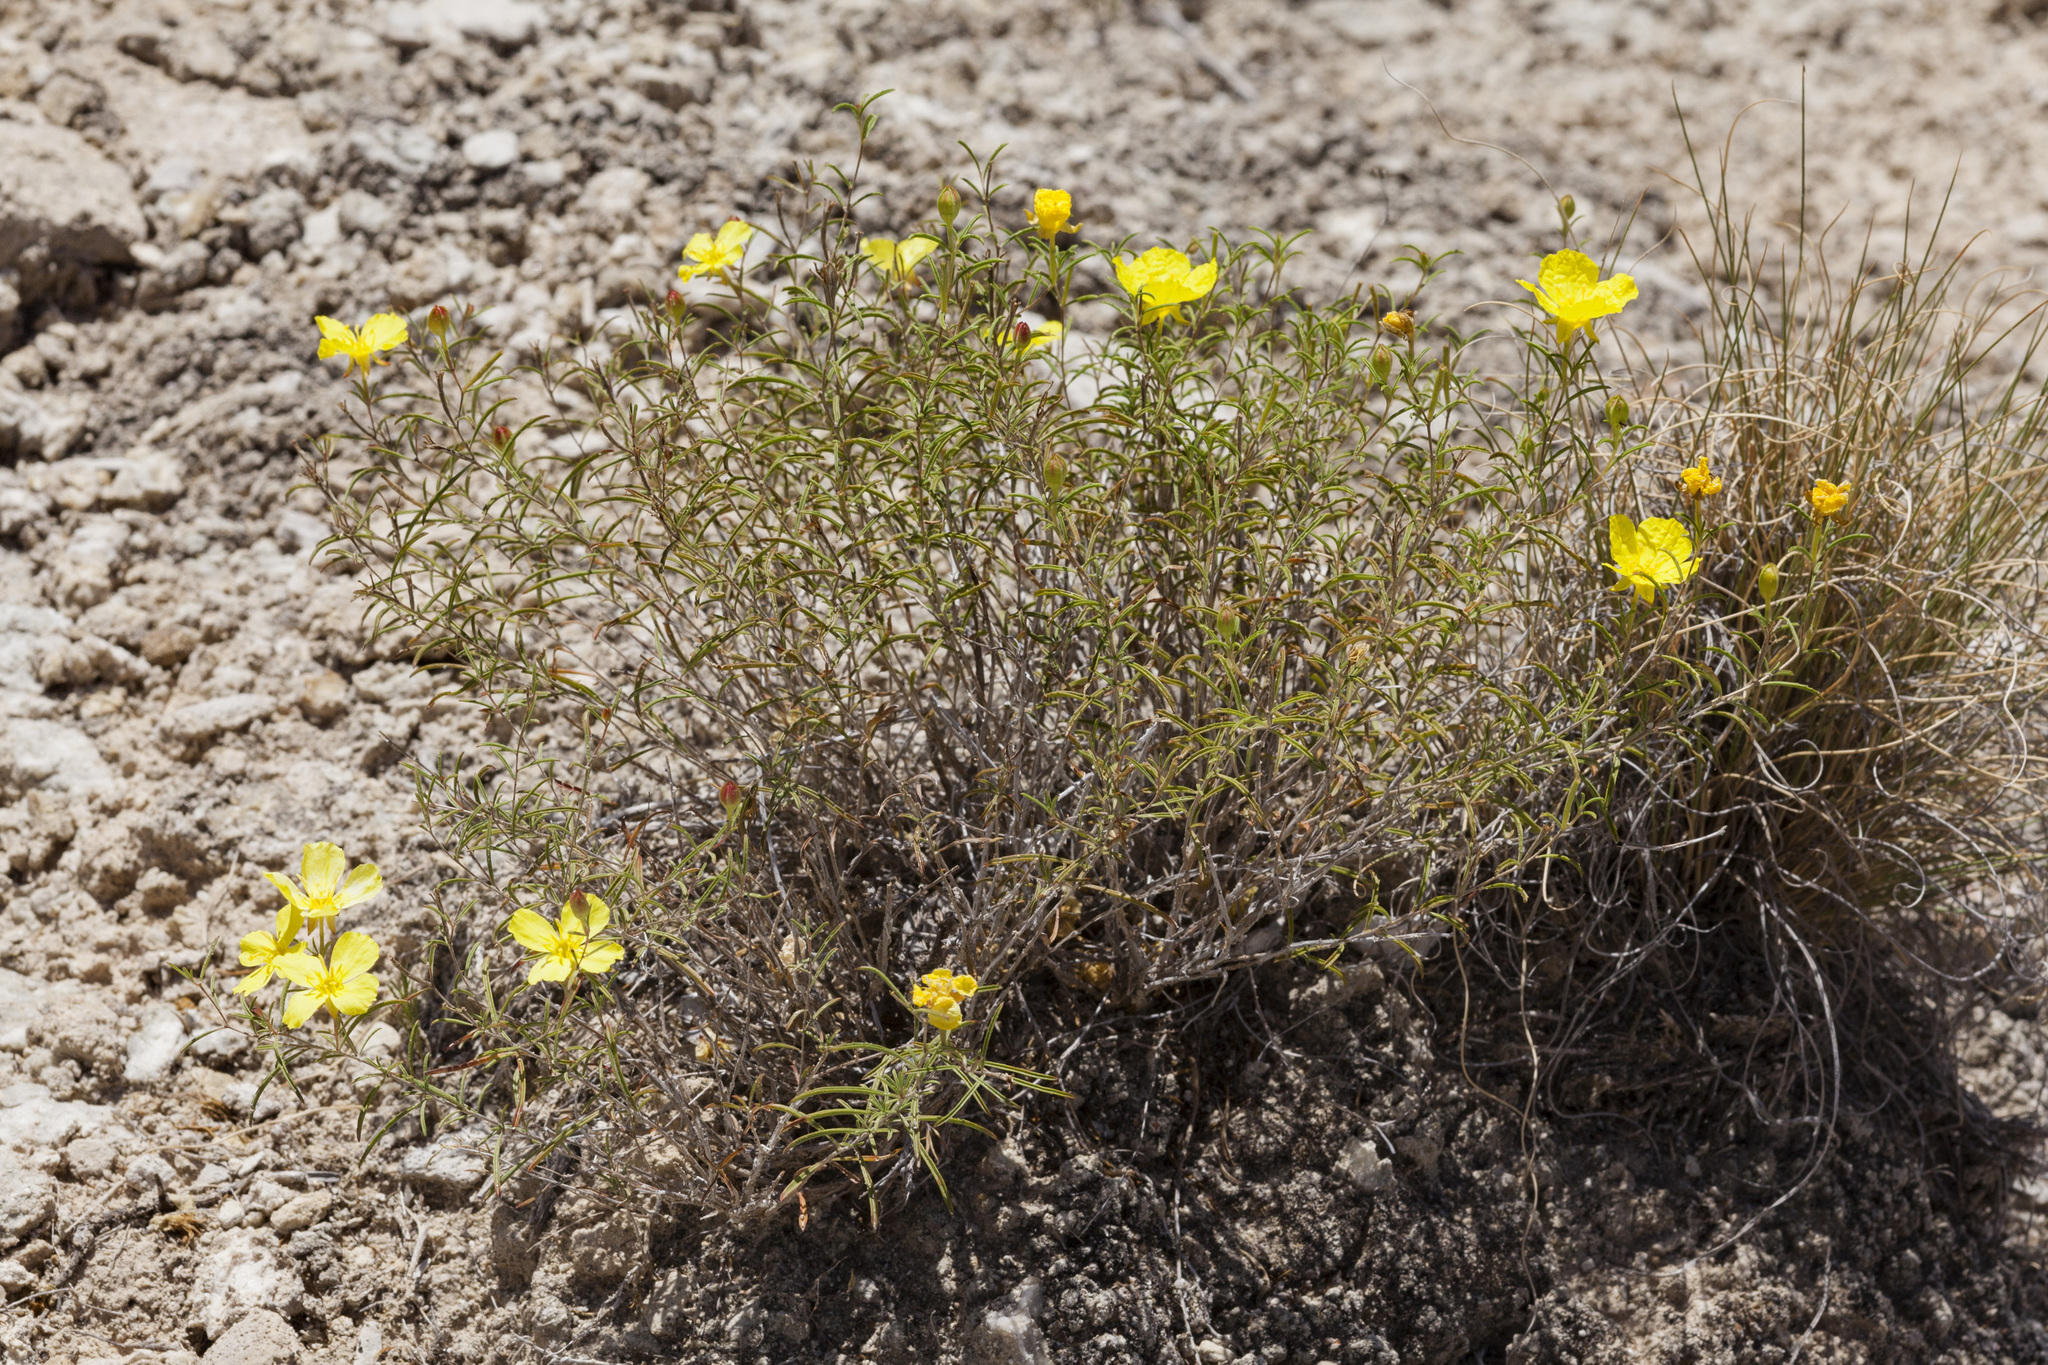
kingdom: Plantae
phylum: Tracheophyta
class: Magnoliopsida
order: Myrtales
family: Onagraceae
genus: Oenothera
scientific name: Oenothera gayleana
